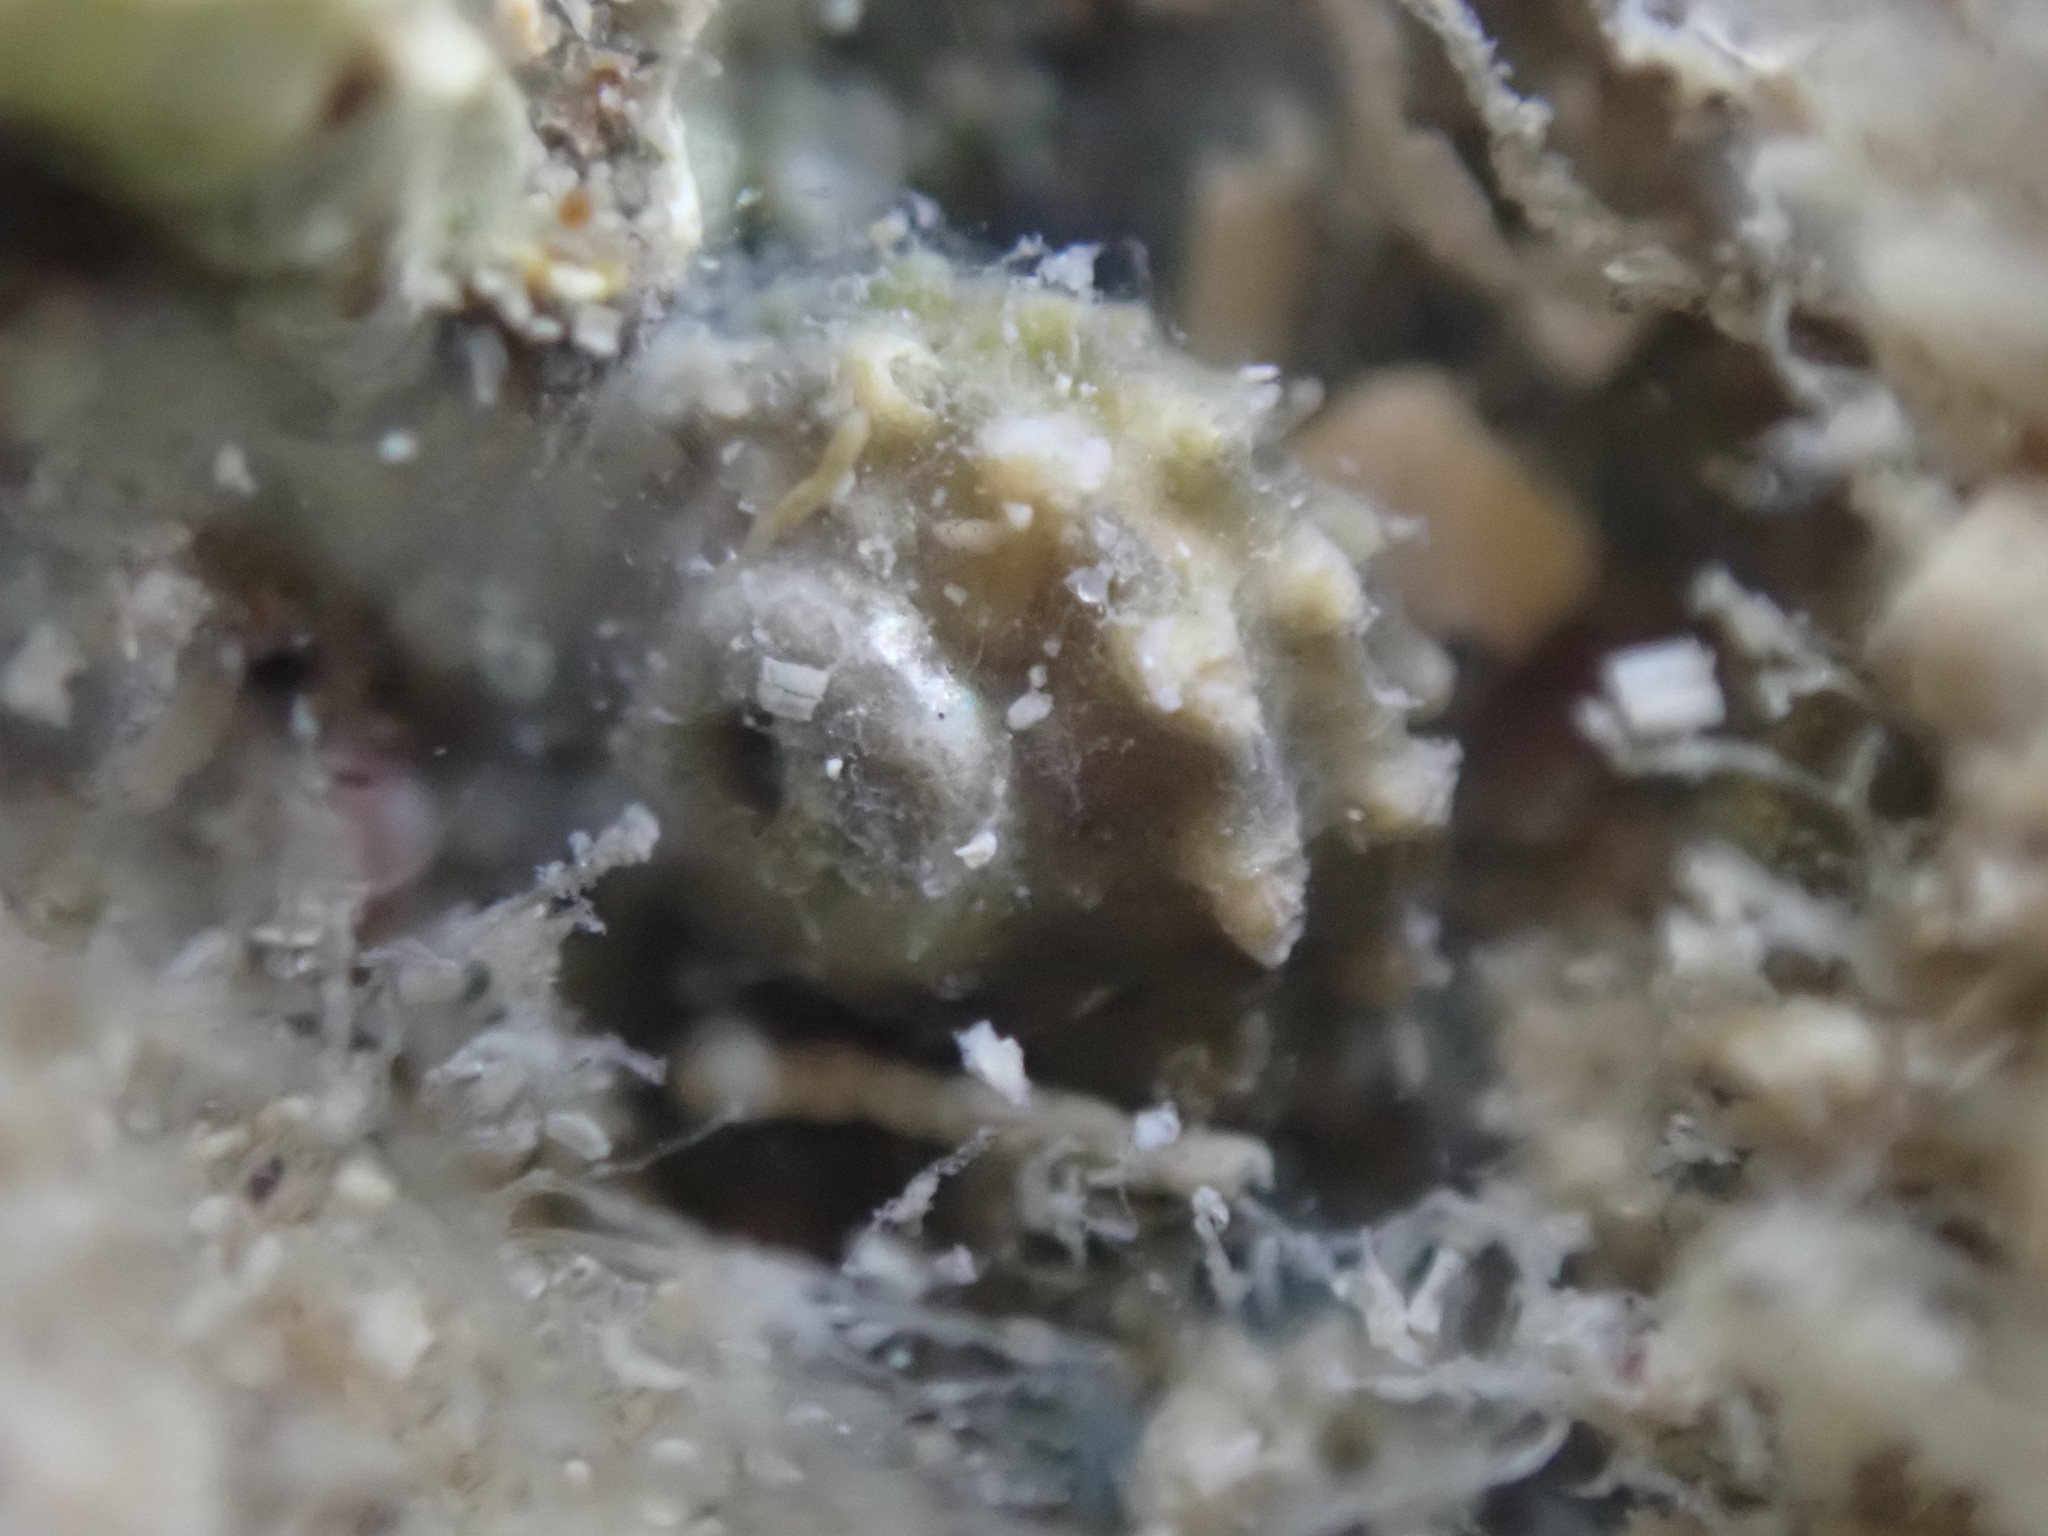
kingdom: Animalia
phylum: Mollusca
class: Gastropoda
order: Trochida
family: Turbinidae
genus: Lunella
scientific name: Lunella smaragda
